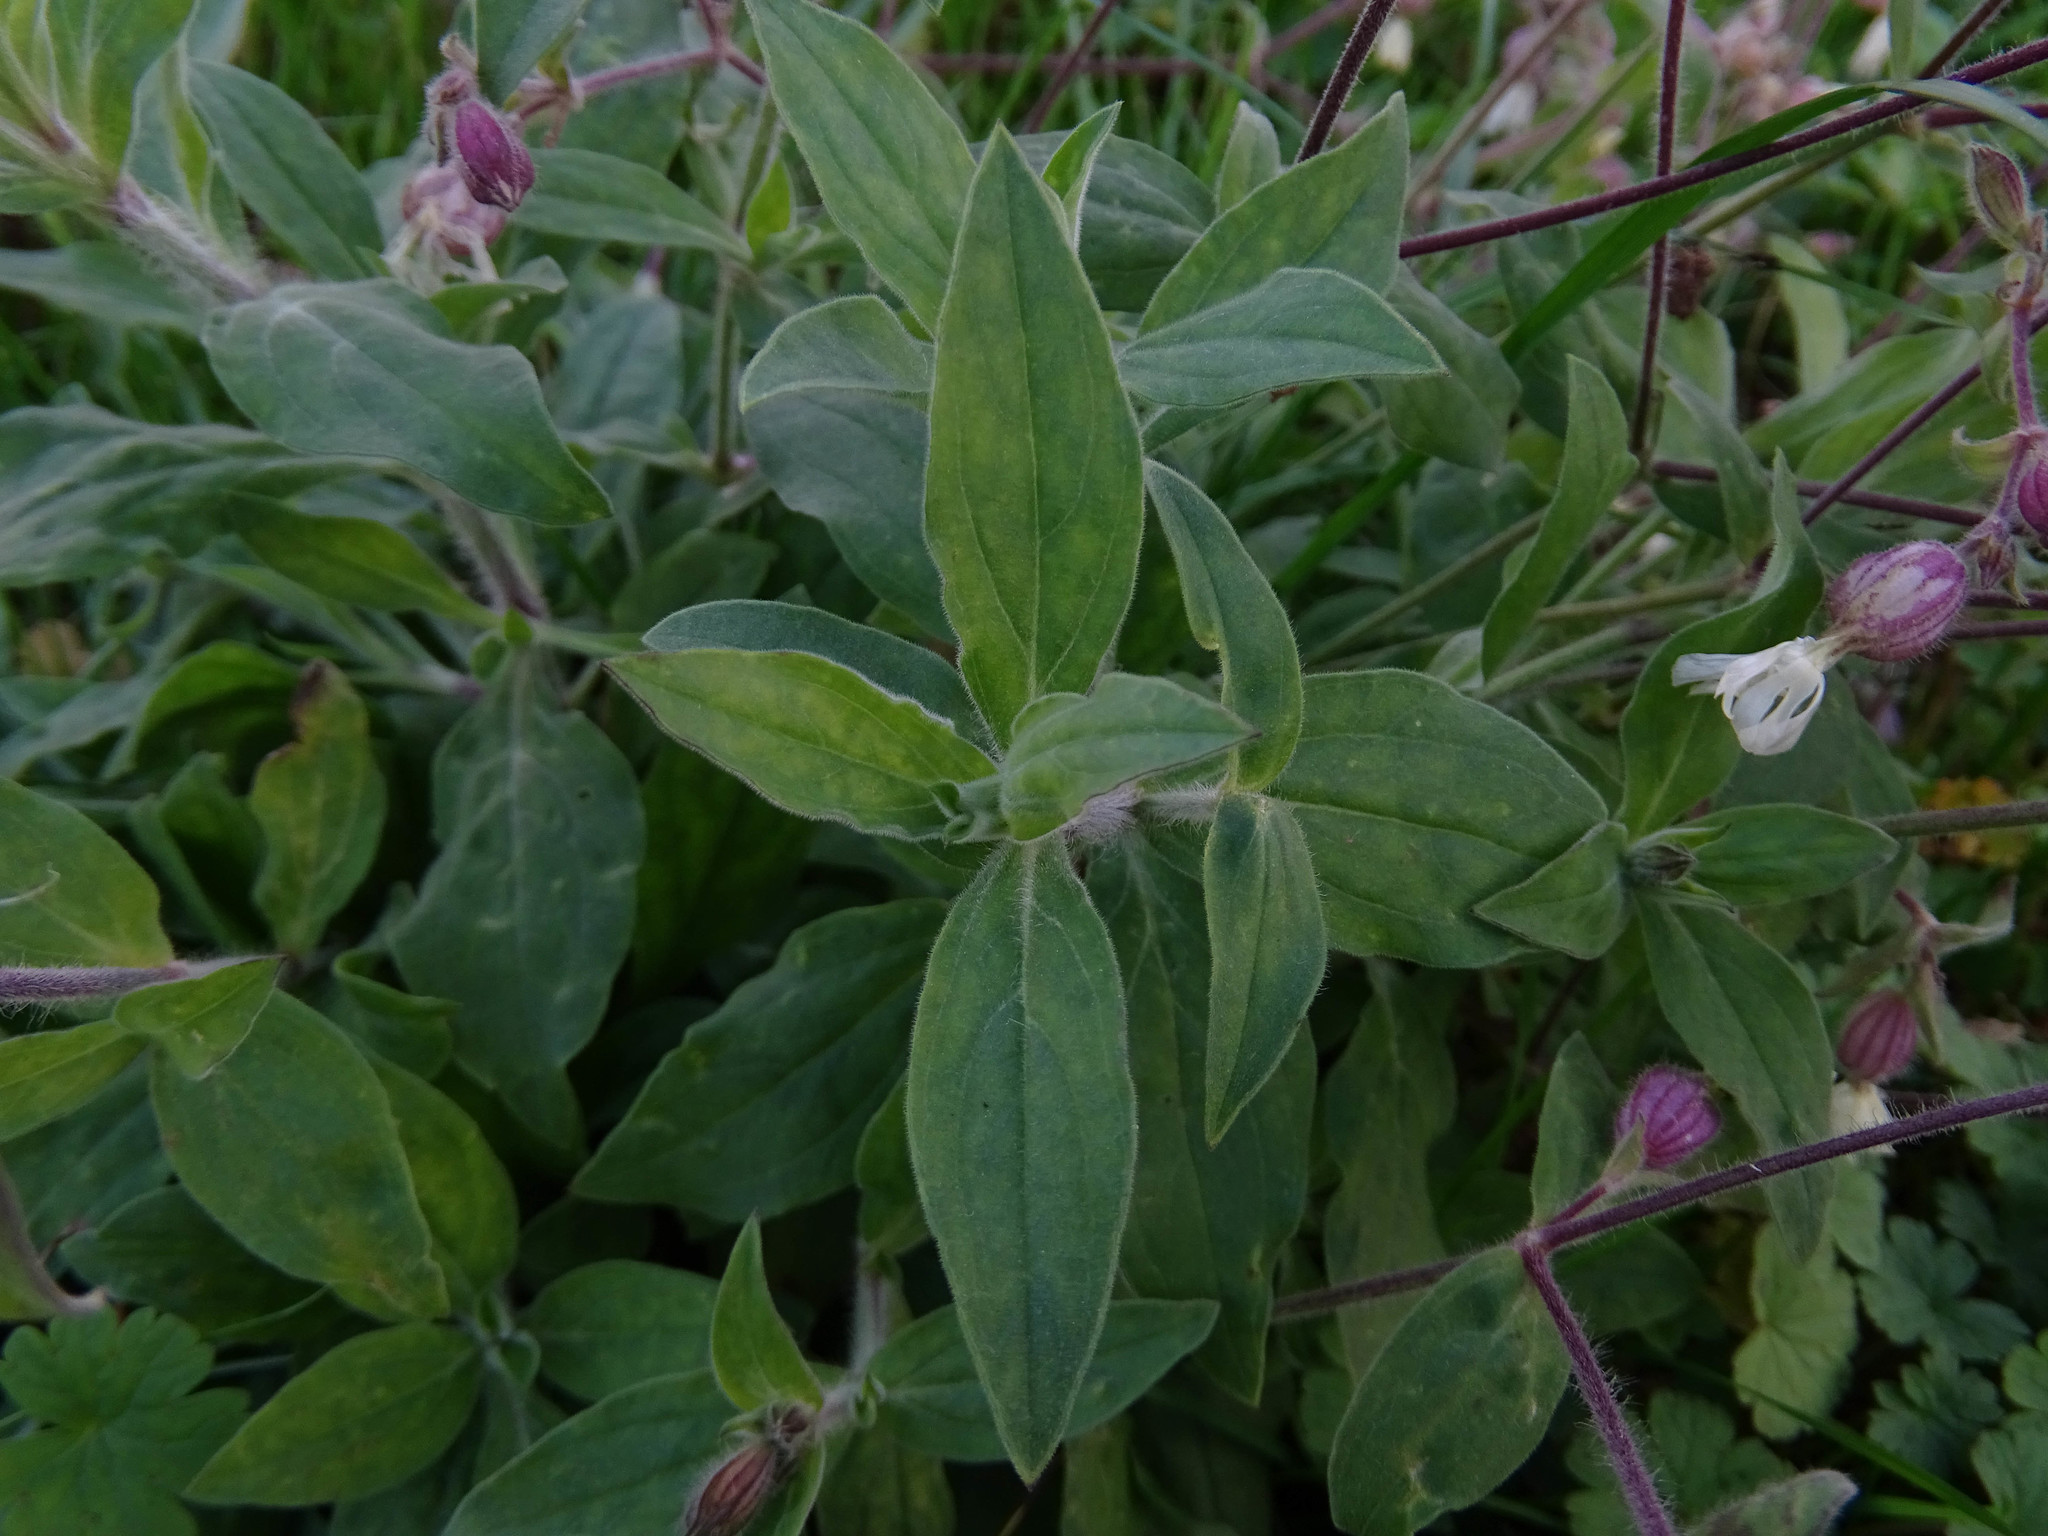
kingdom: Plantae
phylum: Tracheophyta
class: Magnoliopsida
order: Caryophyllales
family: Caryophyllaceae
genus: Silene
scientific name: Silene latifolia
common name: White campion
